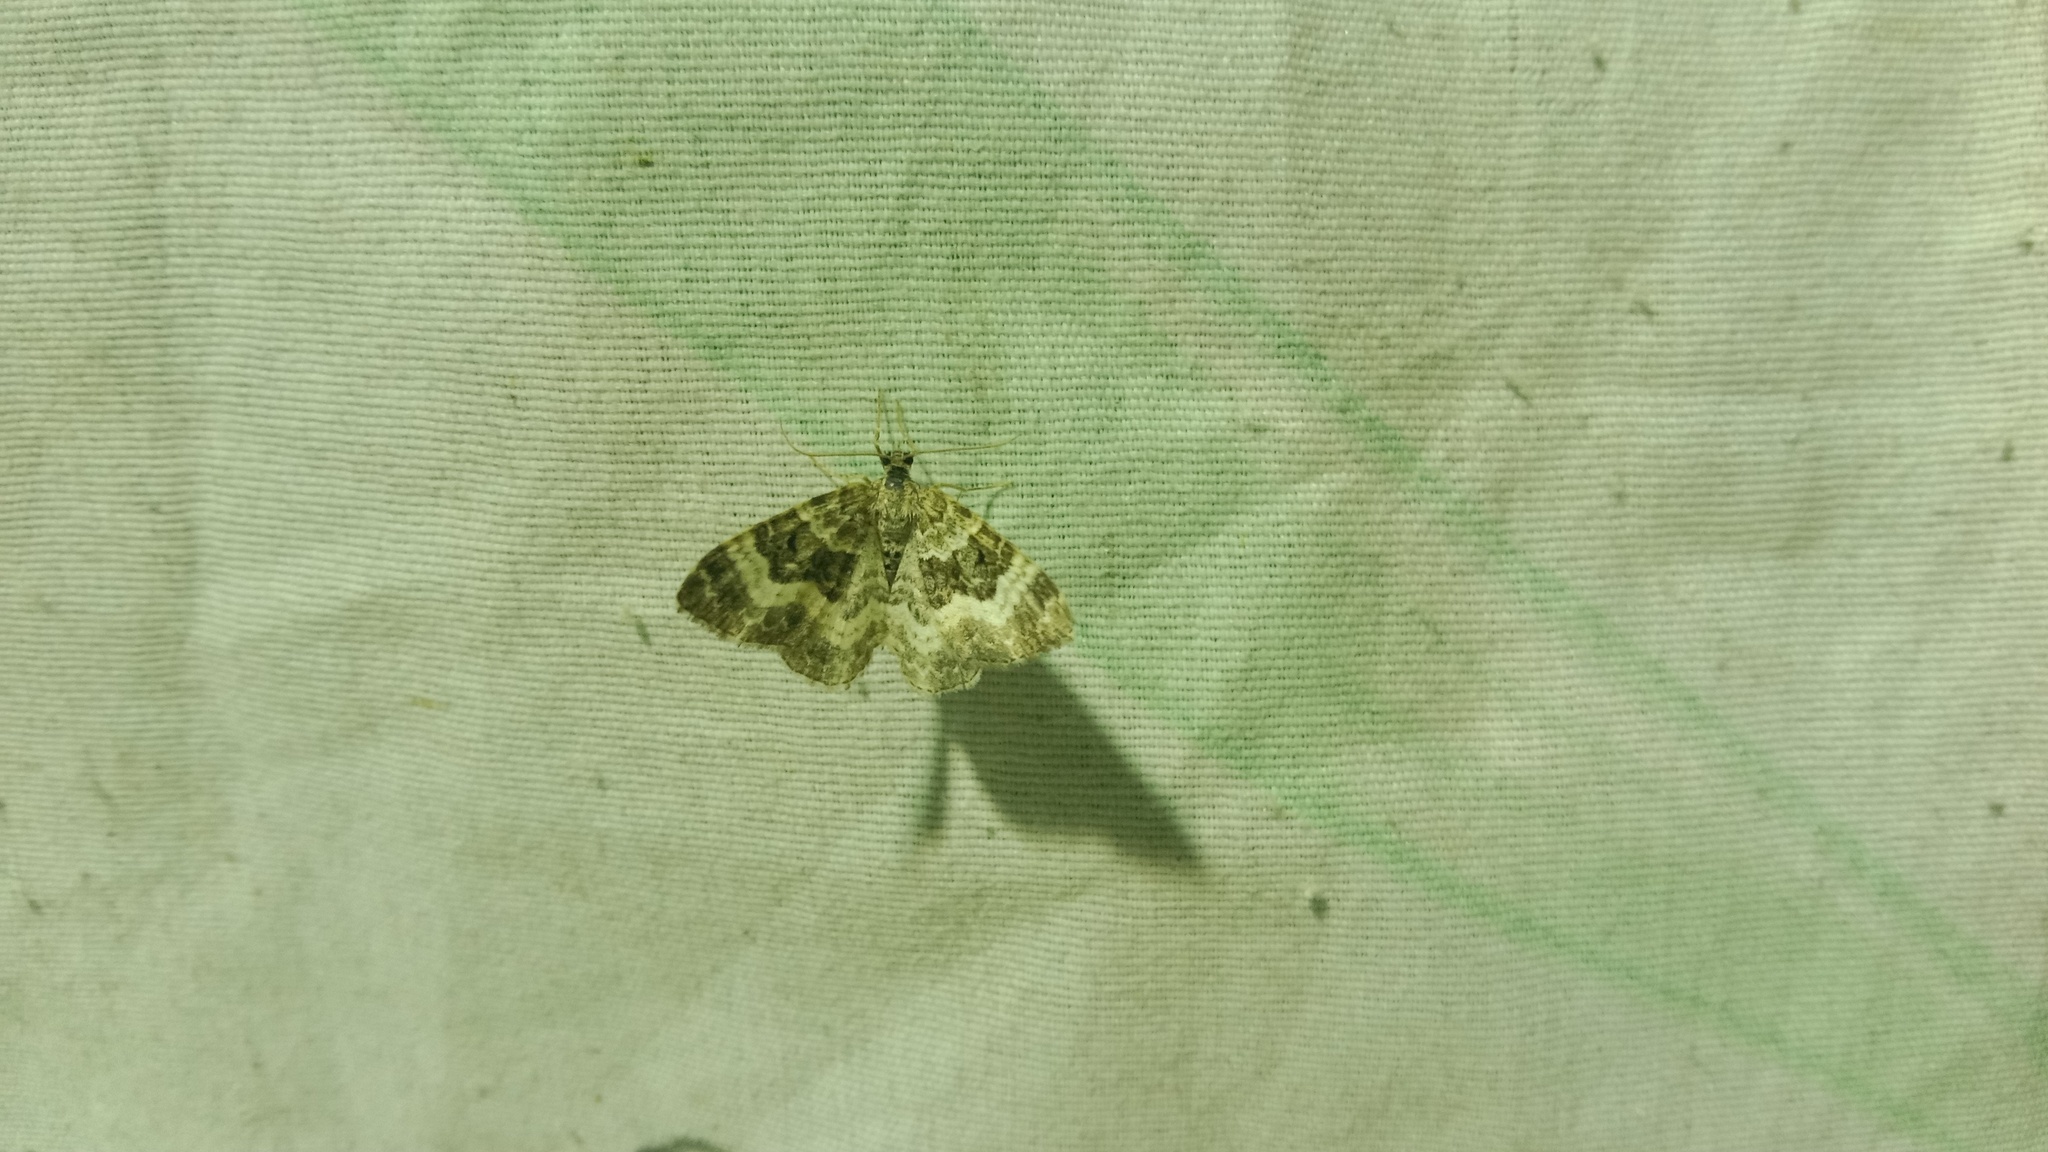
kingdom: Animalia
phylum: Arthropoda
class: Insecta
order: Lepidoptera
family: Geometridae
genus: Epirrhoe
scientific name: Epirrhoe alternata
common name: Common carpet
